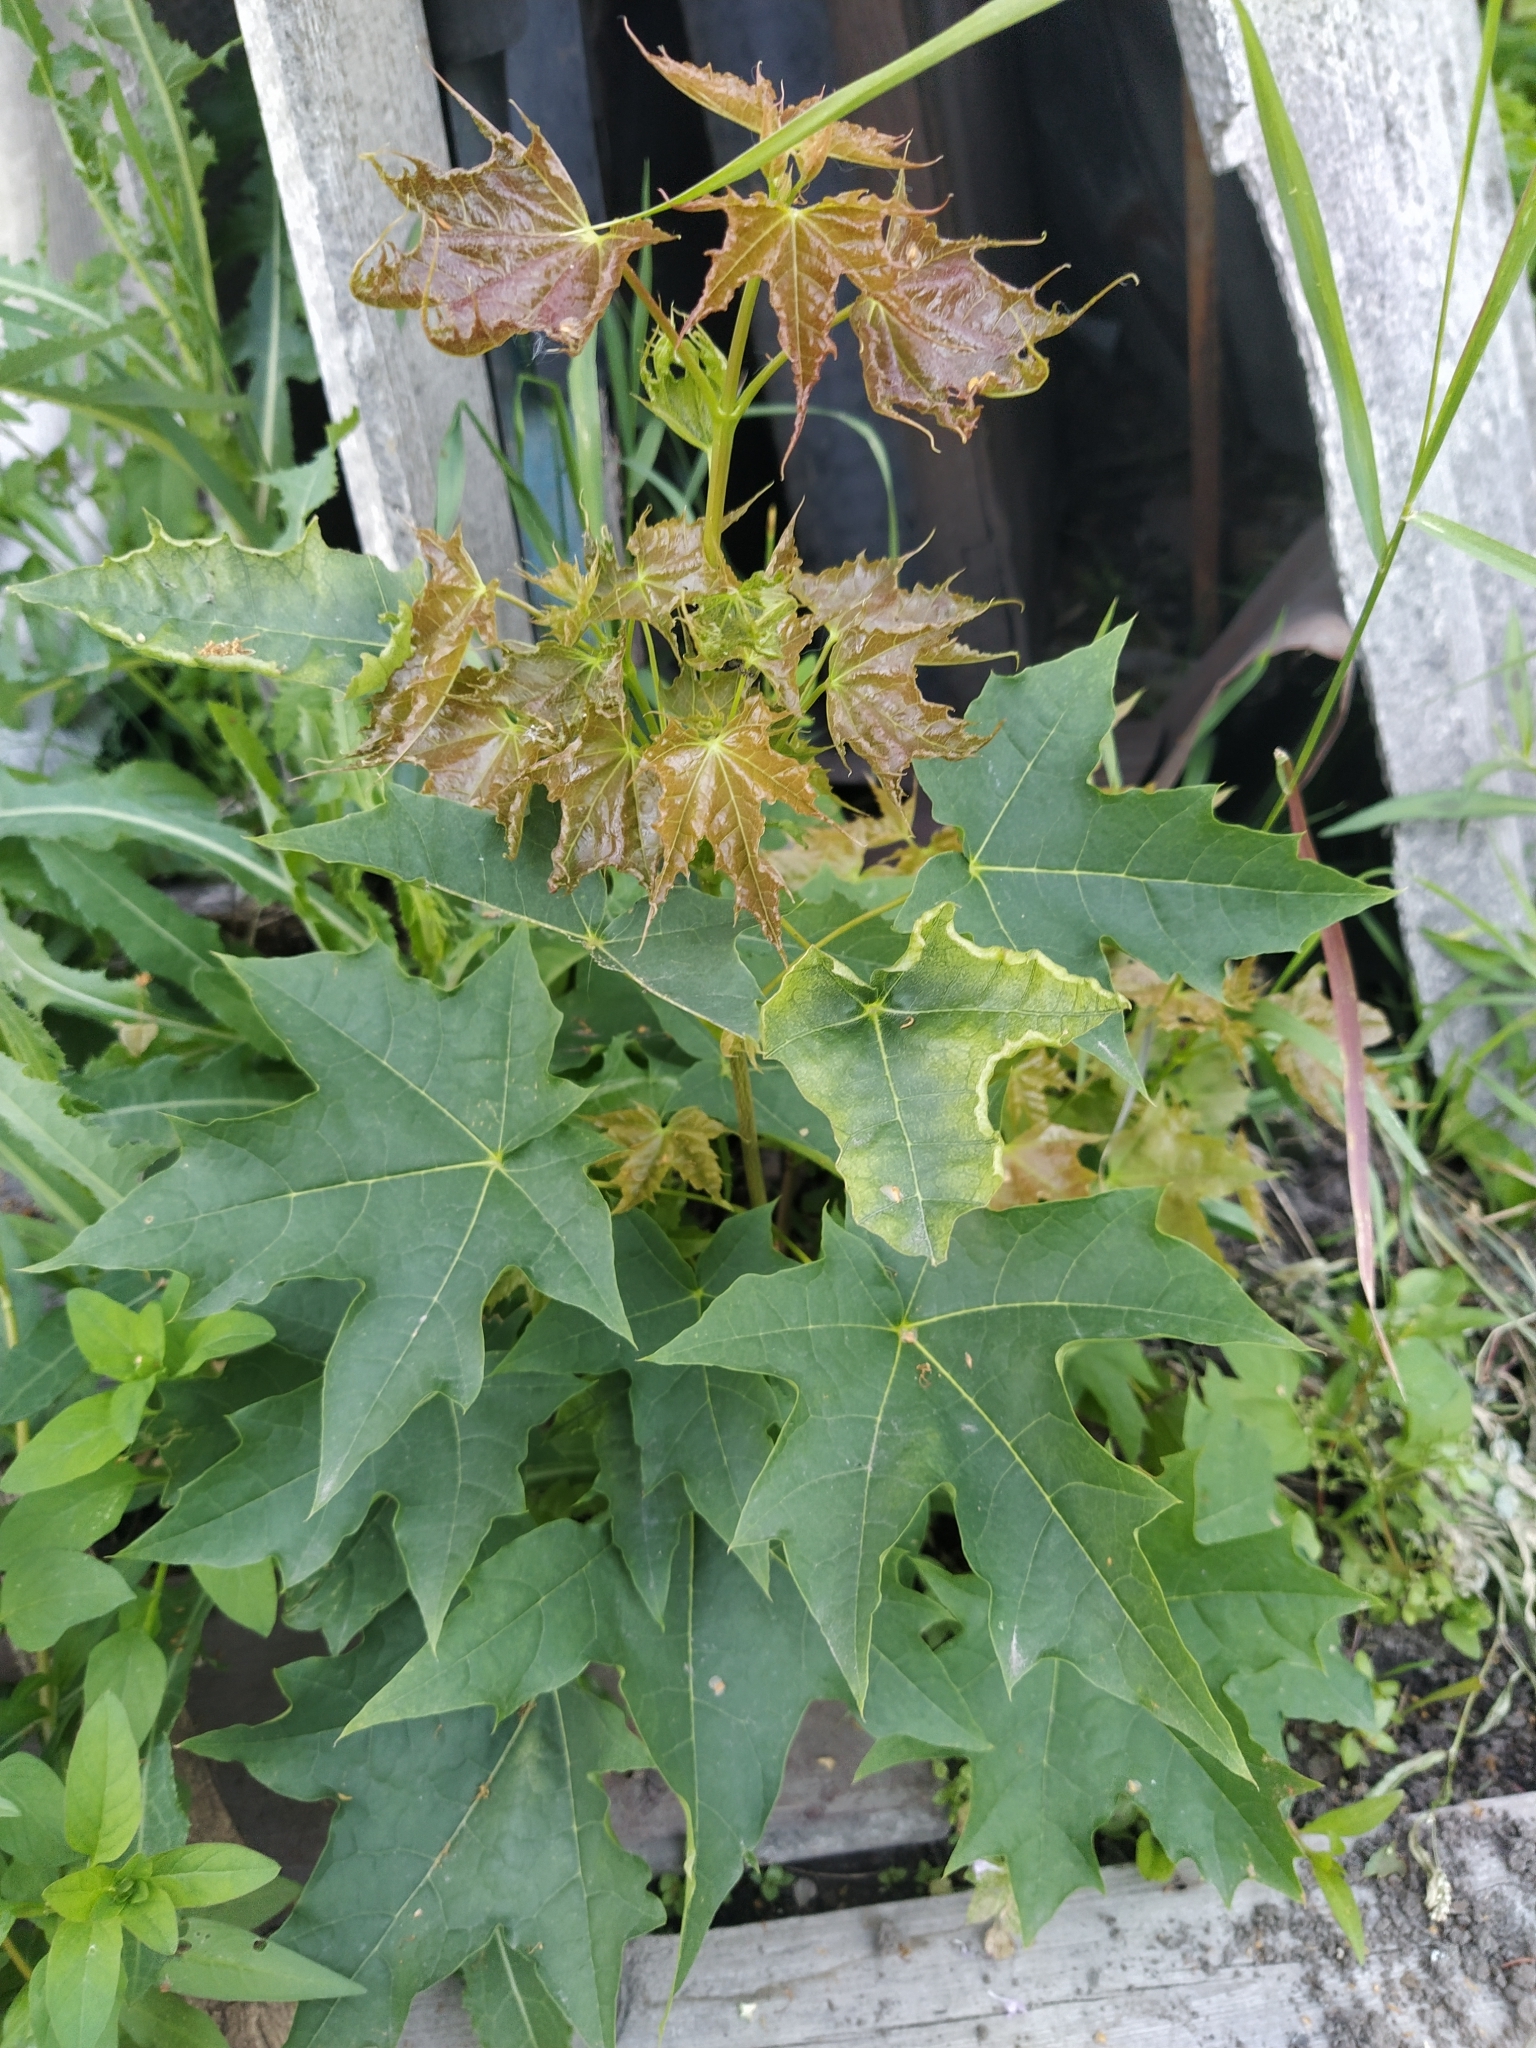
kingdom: Plantae
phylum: Tracheophyta
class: Magnoliopsida
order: Sapindales
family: Sapindaceae
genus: Acer
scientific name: Acer platanoides
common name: Norway maple
